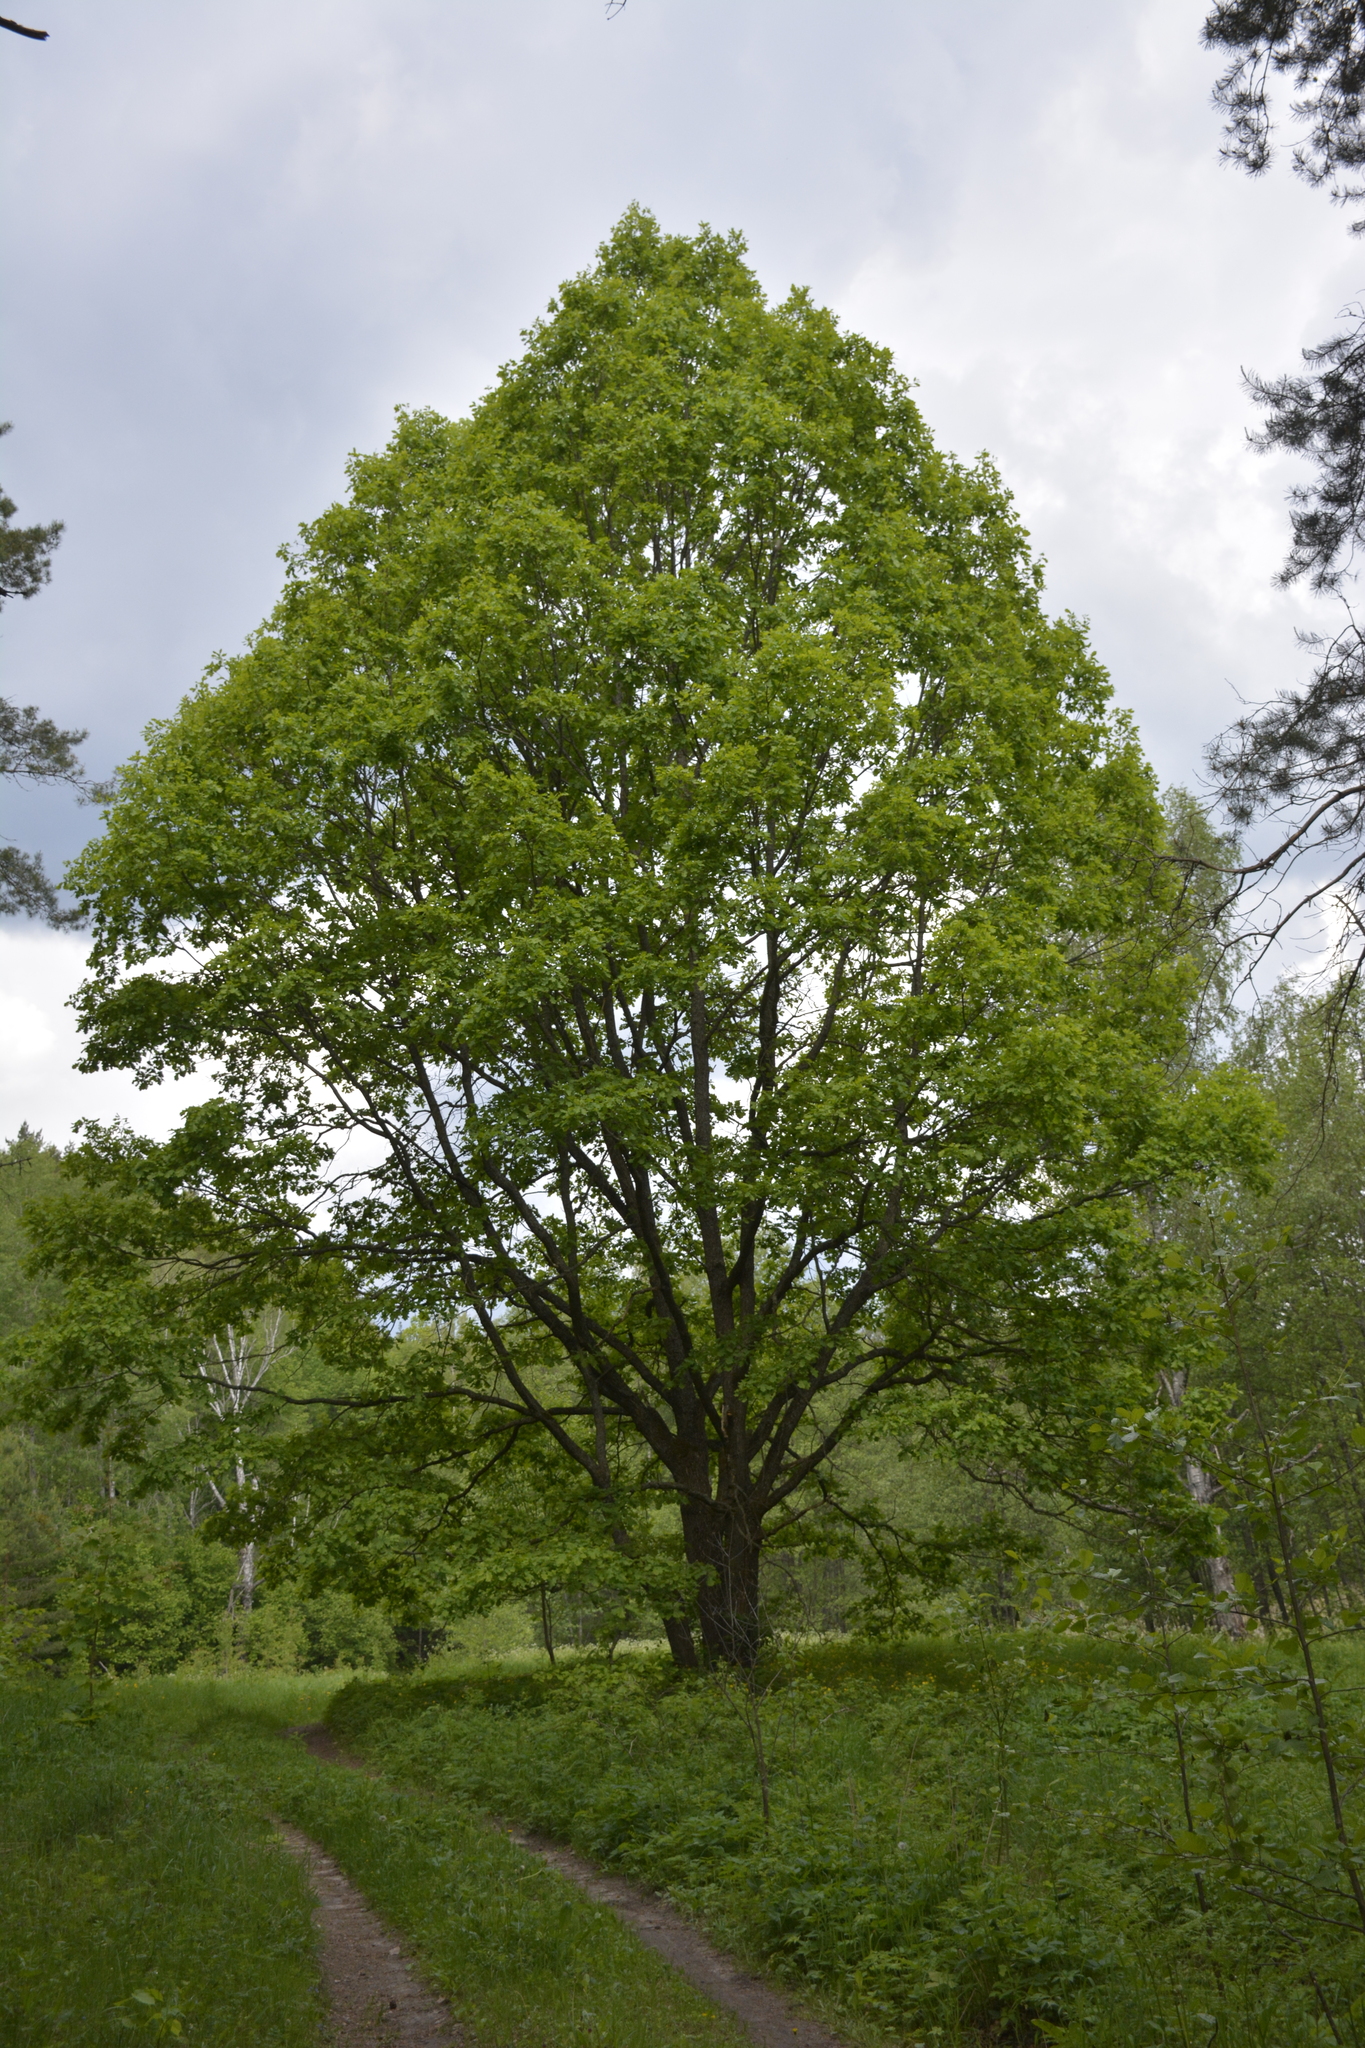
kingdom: Plantae
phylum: Tracheophyta
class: Magnoliopsida
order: Fagales
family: Fagaceae
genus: Quercus
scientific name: Quercus robur
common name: Pedunculate oak
